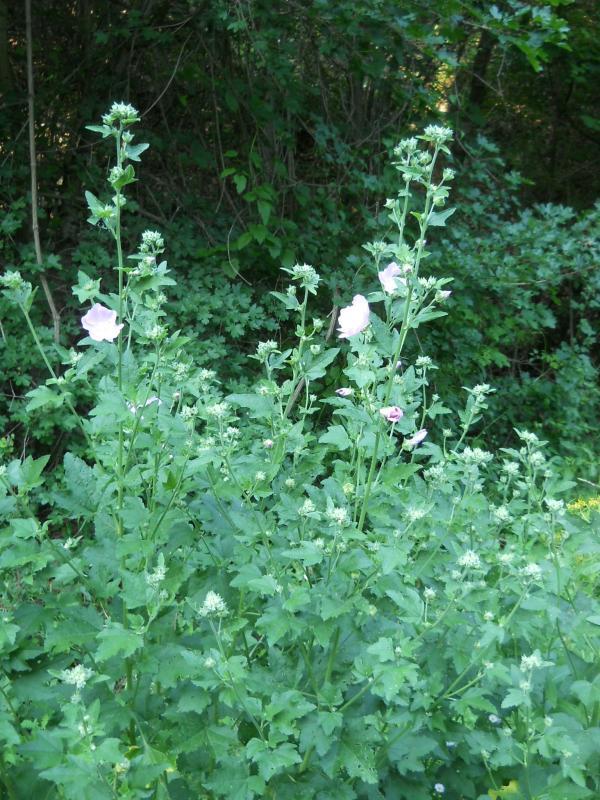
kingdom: Plantae
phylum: Tracheophyta
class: Magnoliopsida
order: Malvales
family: Malvaceae
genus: Althaea
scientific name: Althaea officinalis
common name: Marsh-mallow
